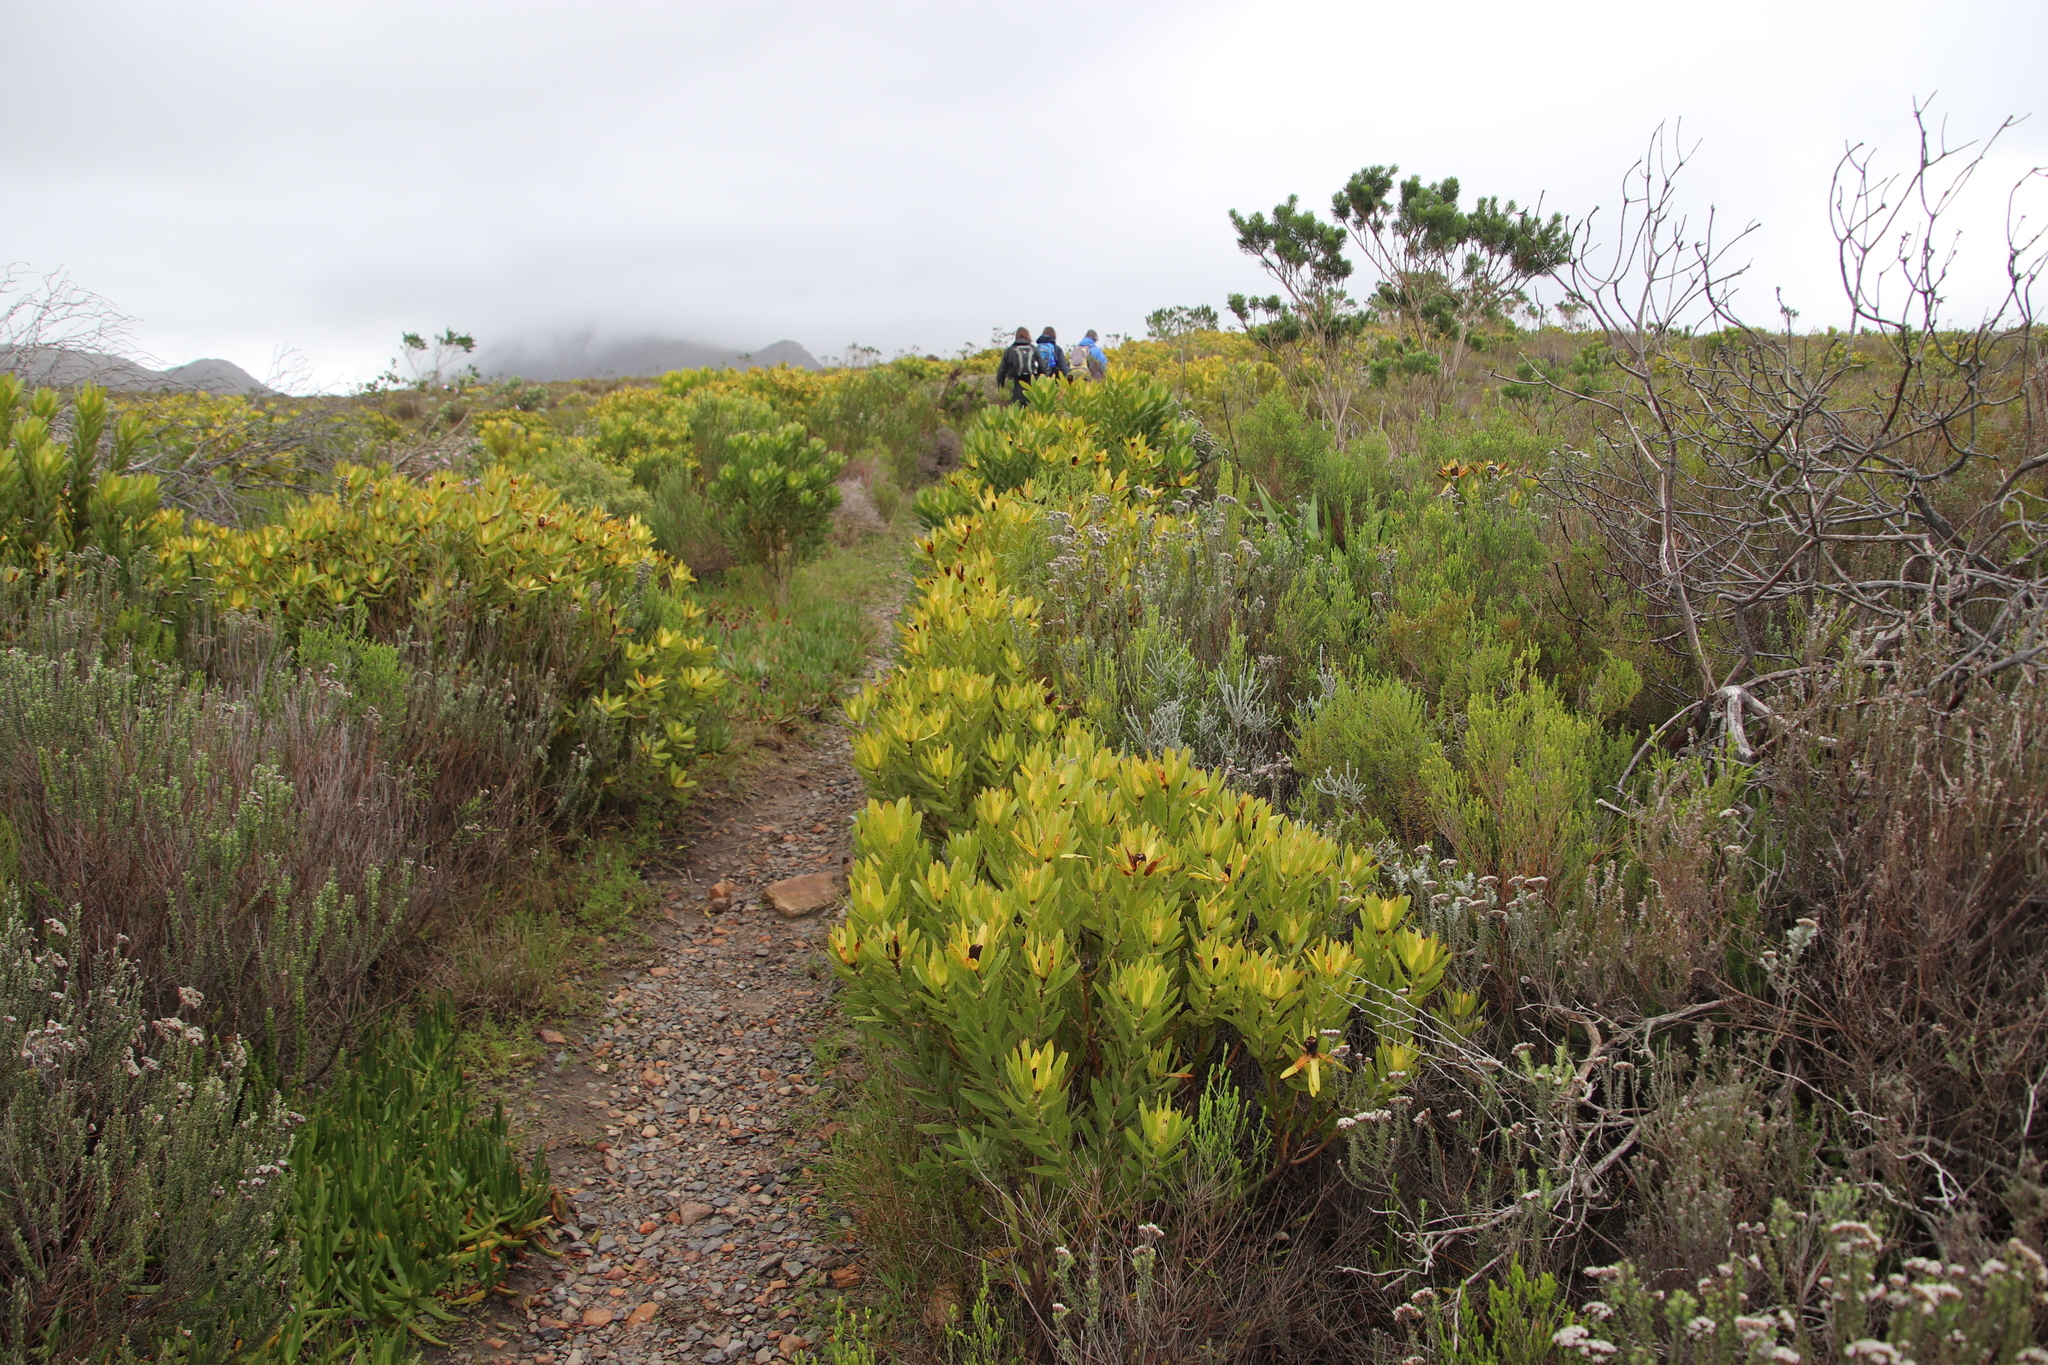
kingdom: Plantae
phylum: Tracheophyta
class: Magnoliopsida
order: Proteales
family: Proteaceae
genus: Leucadendron
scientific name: Leucadendron laureolum
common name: Golden sunshinebush
